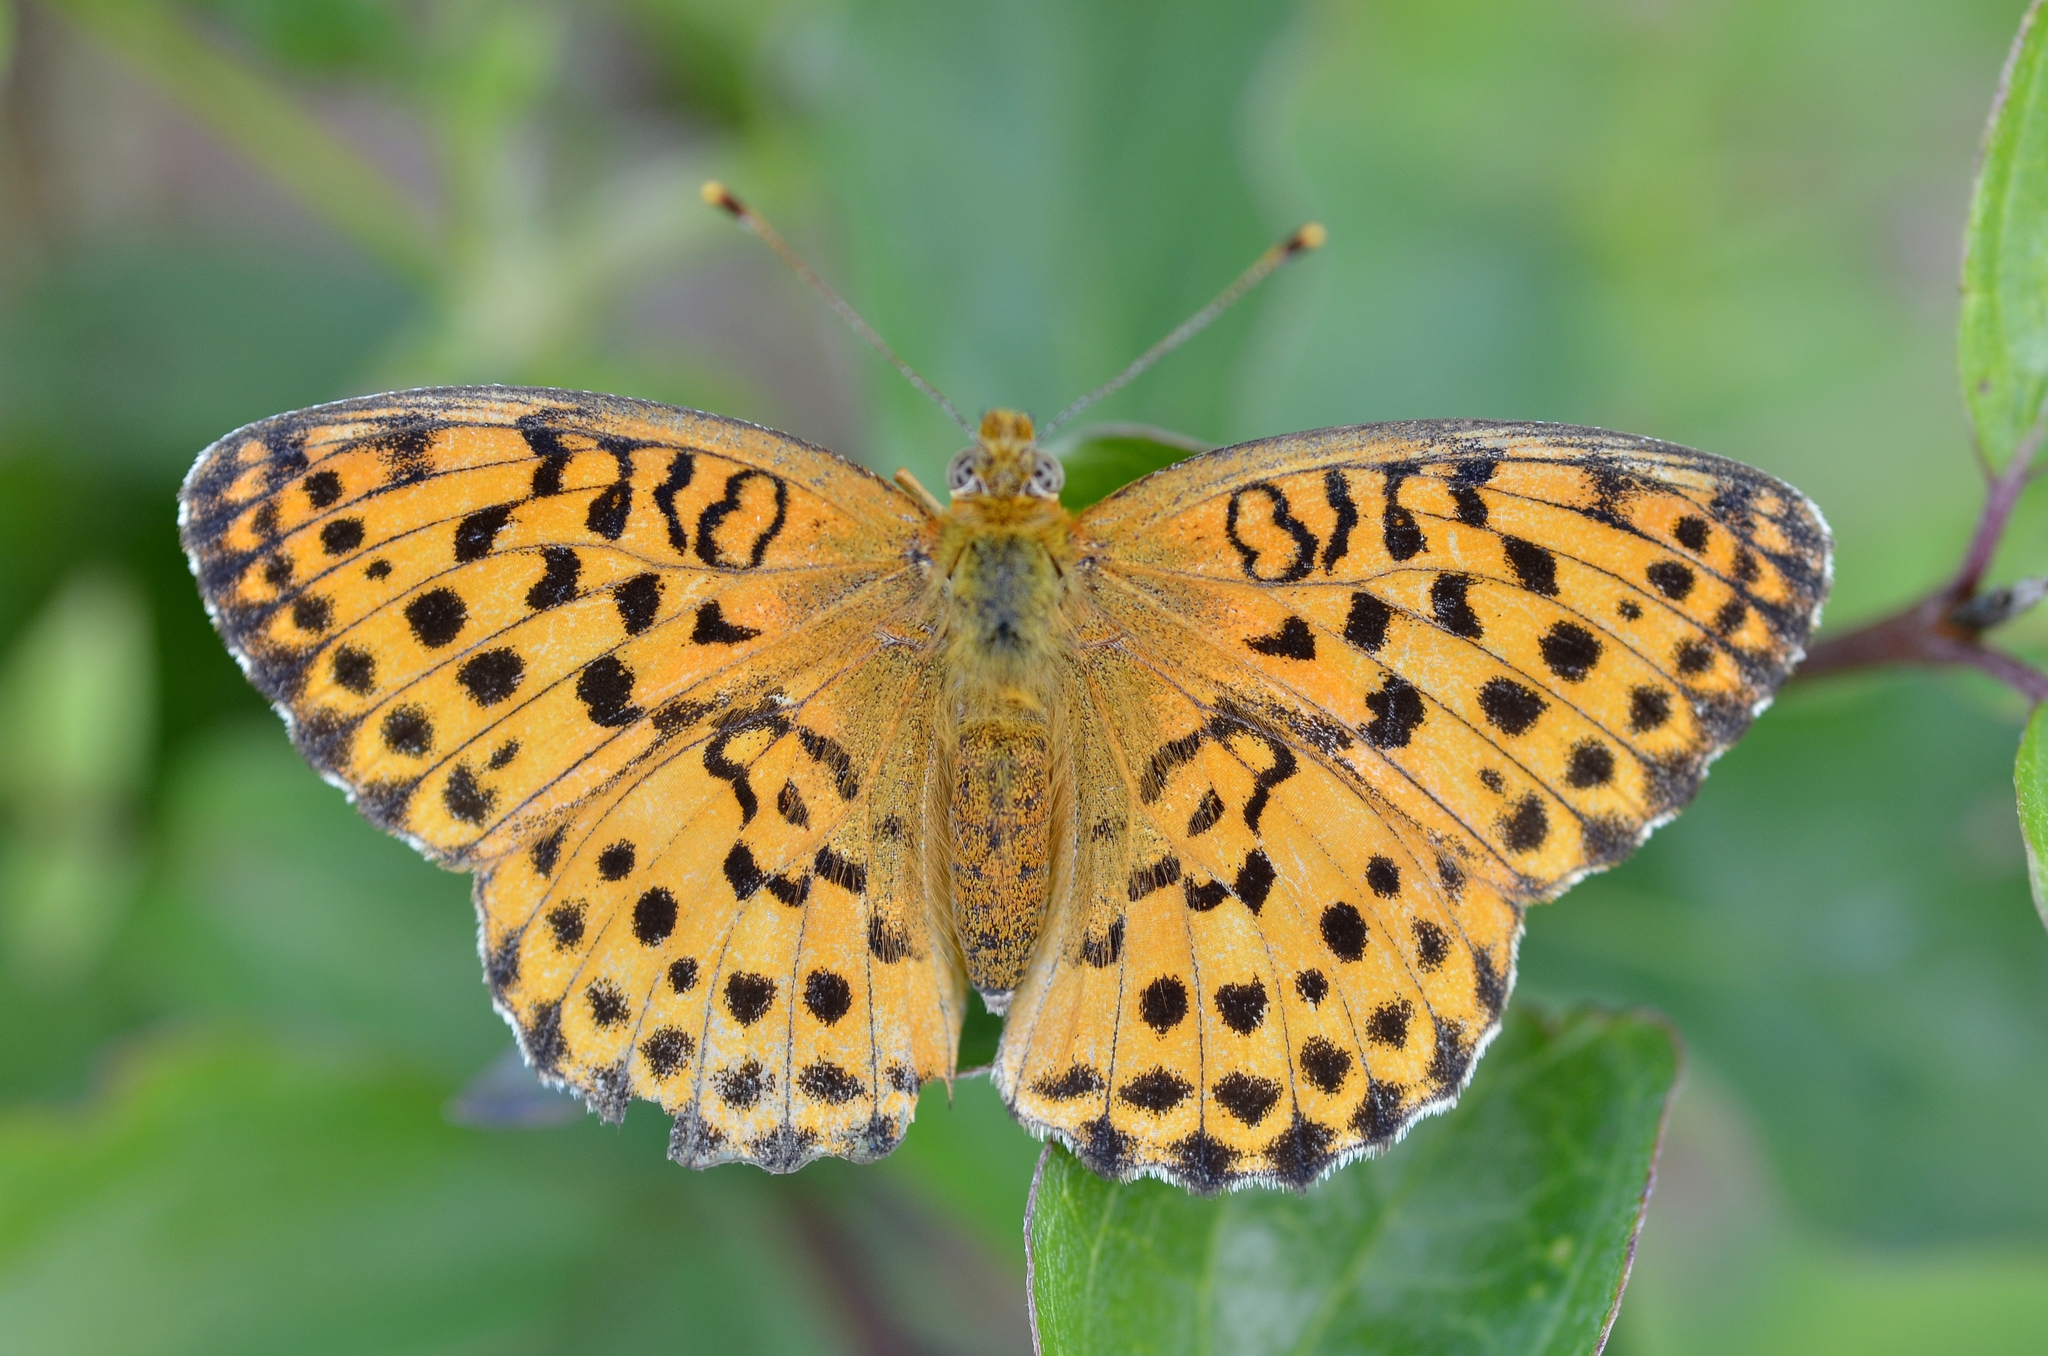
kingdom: Animalia
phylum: Arthropoda
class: Insecta
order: Lepidoptera
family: Nymphalidae
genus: Brenthis
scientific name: Brenthis daphne
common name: Marbled fritillary
